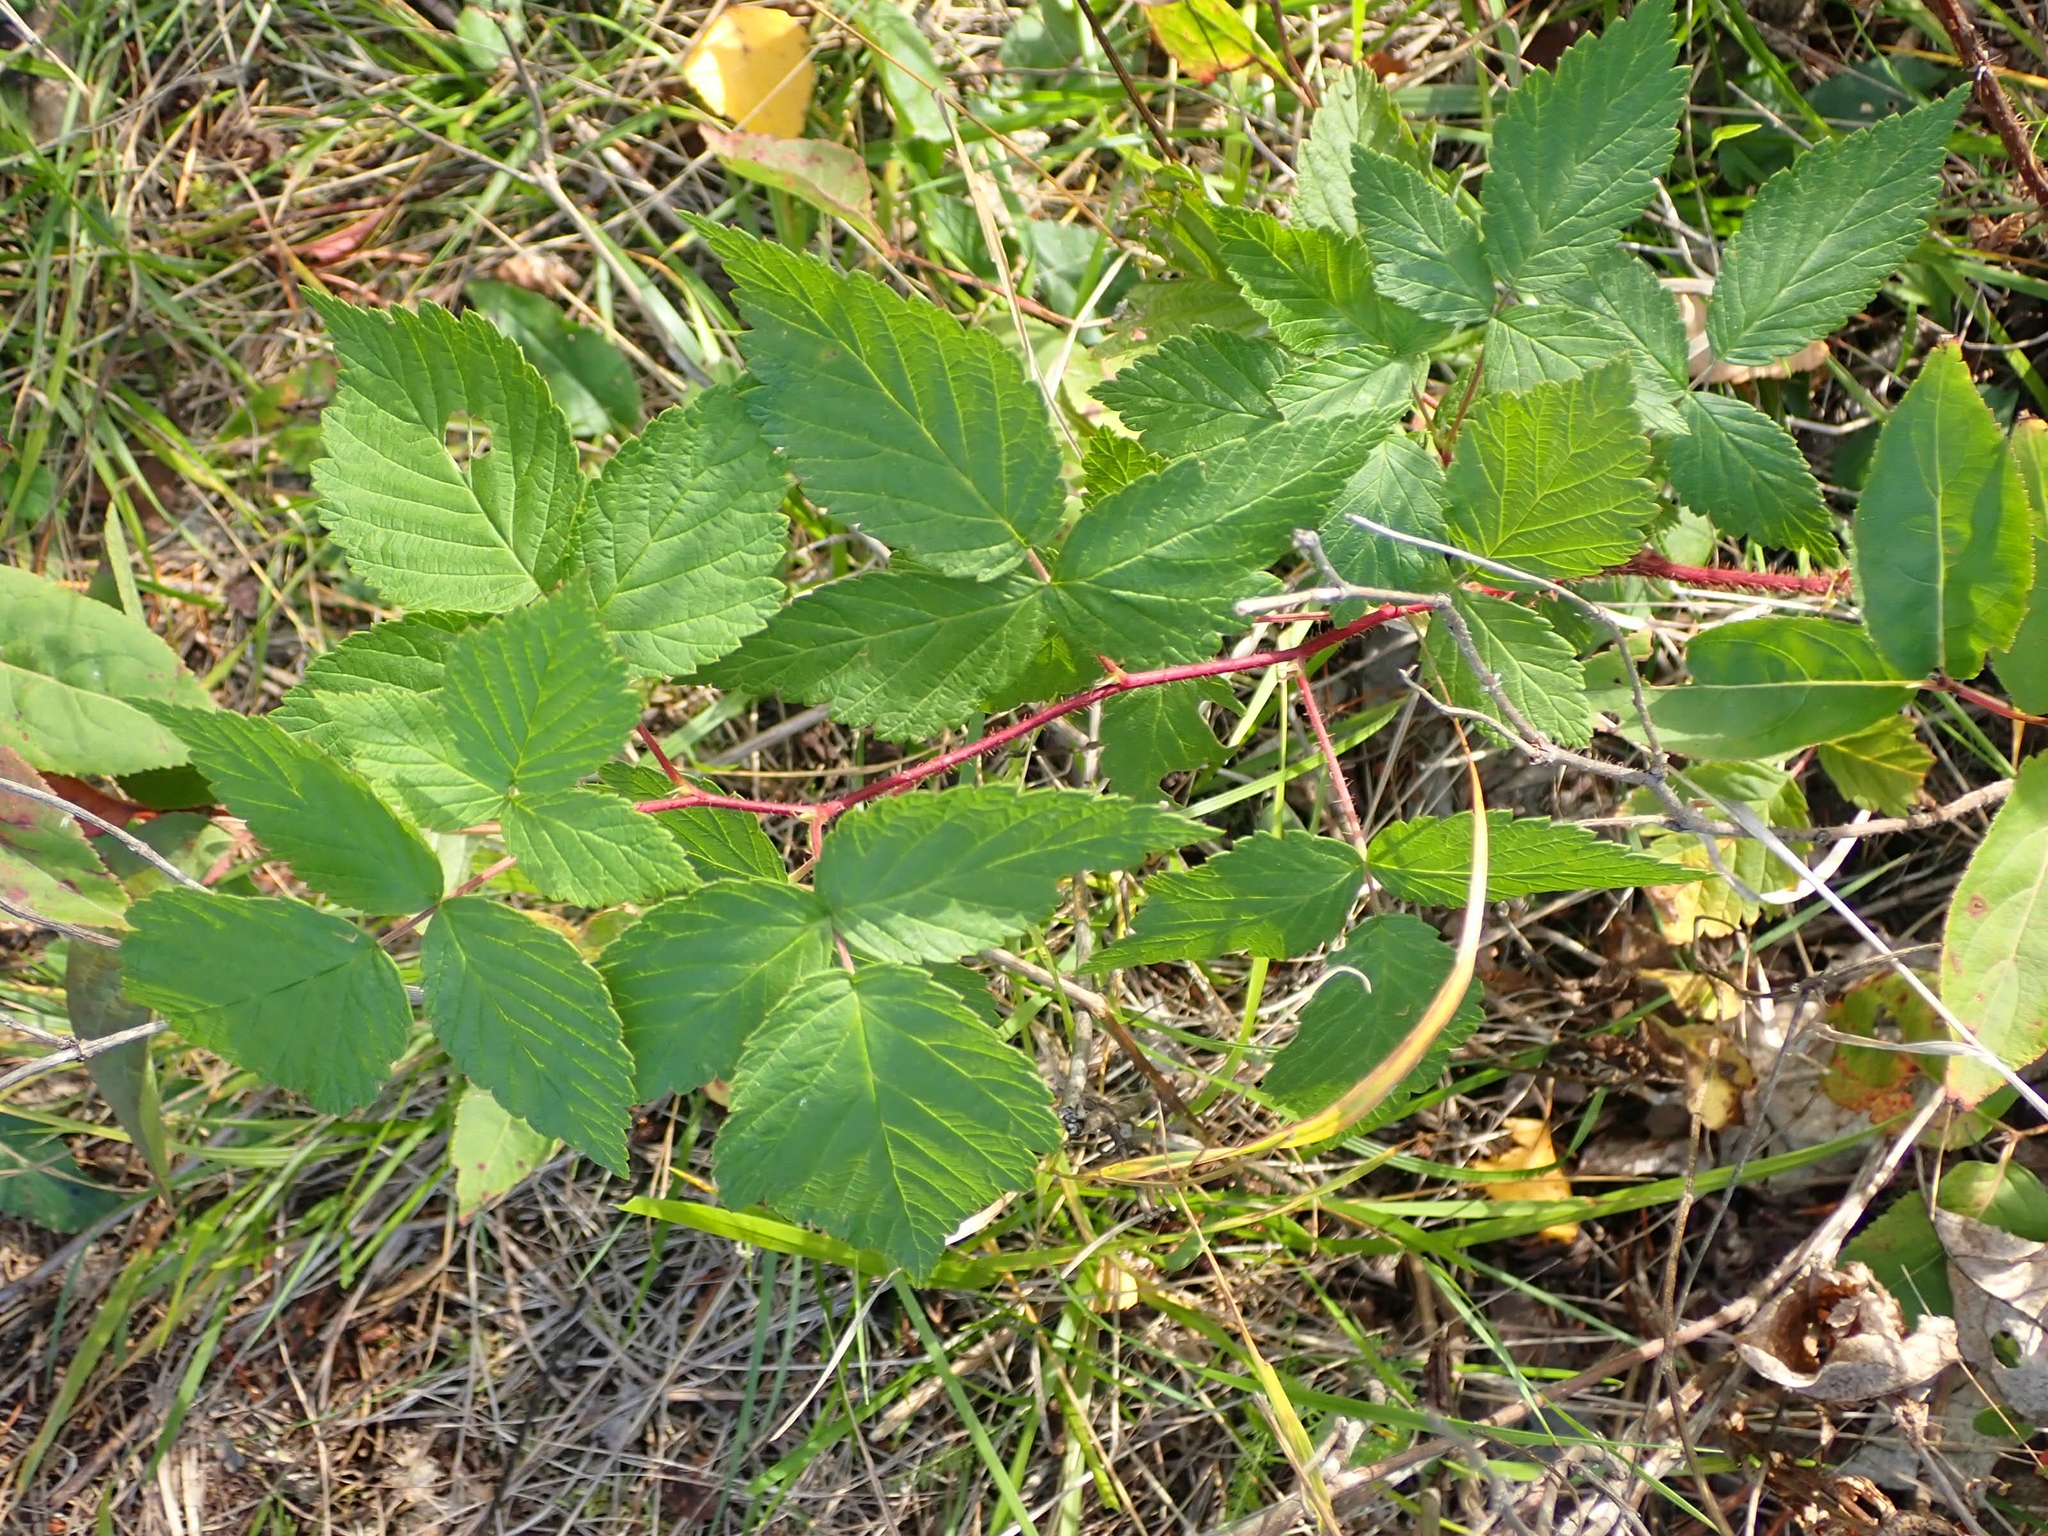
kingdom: Plantae
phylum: Tracheophyta
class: Magnoliopsida
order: Rosales
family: Rosaceae
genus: Rubus
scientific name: Rubus idaeus
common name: Raspberry
